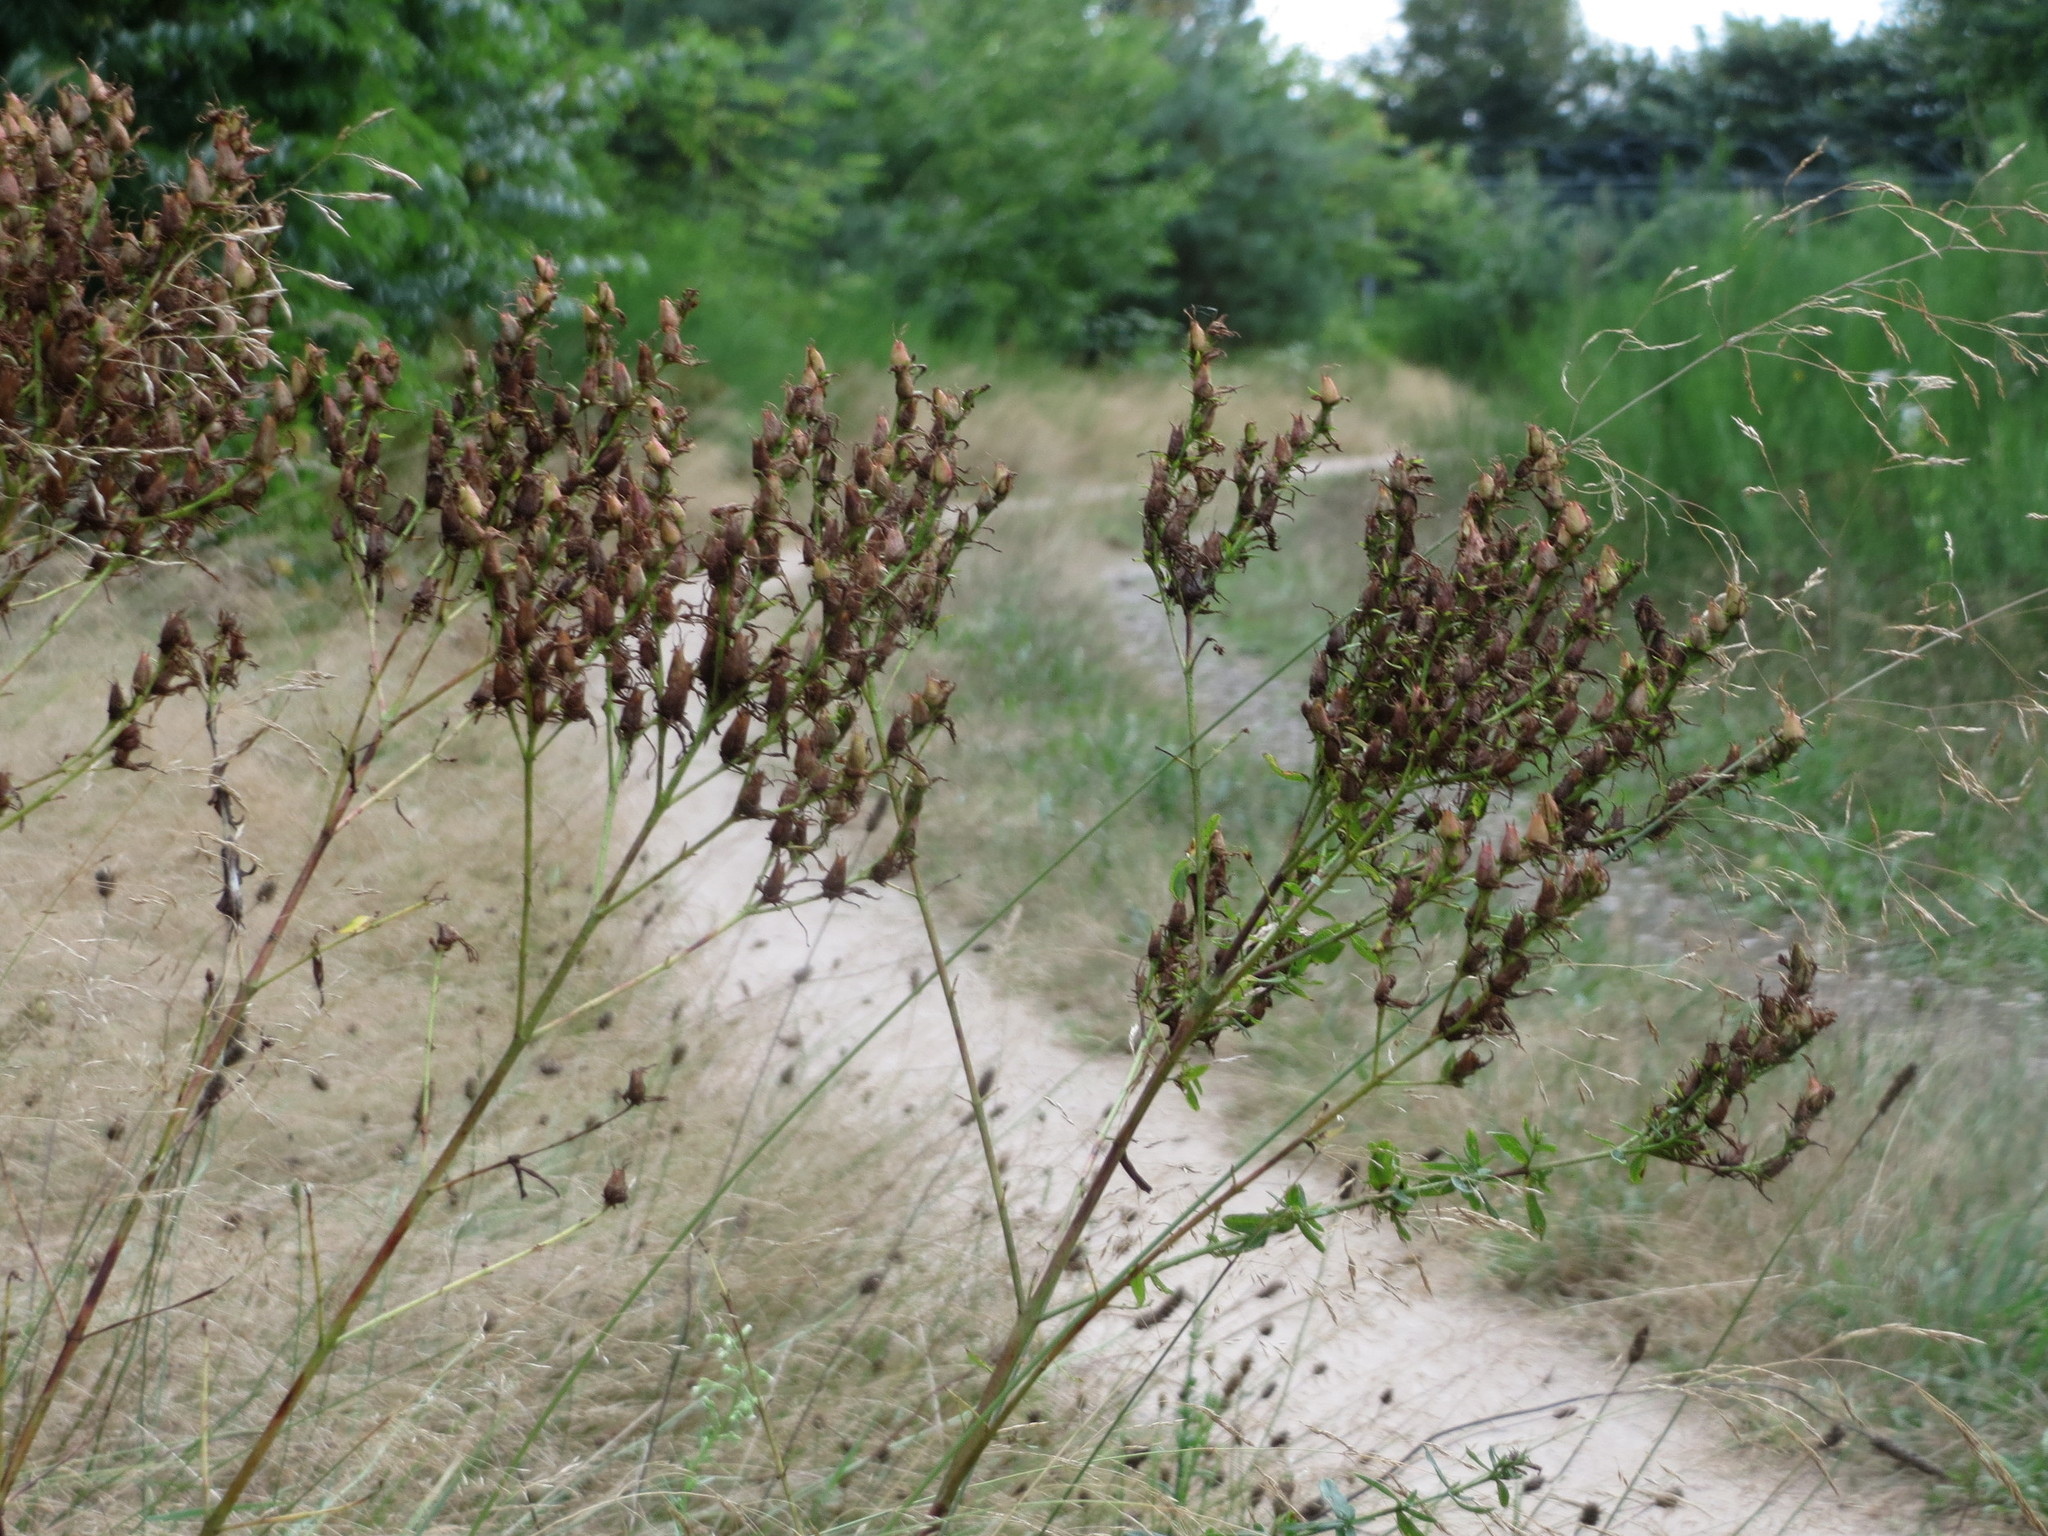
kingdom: Plantae
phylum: Tracheophyta
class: Magnoliopsida
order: Malpighiales
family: Hypericaceae
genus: Hypericum
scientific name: Hypericum perforatum
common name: Common st. johnswort
